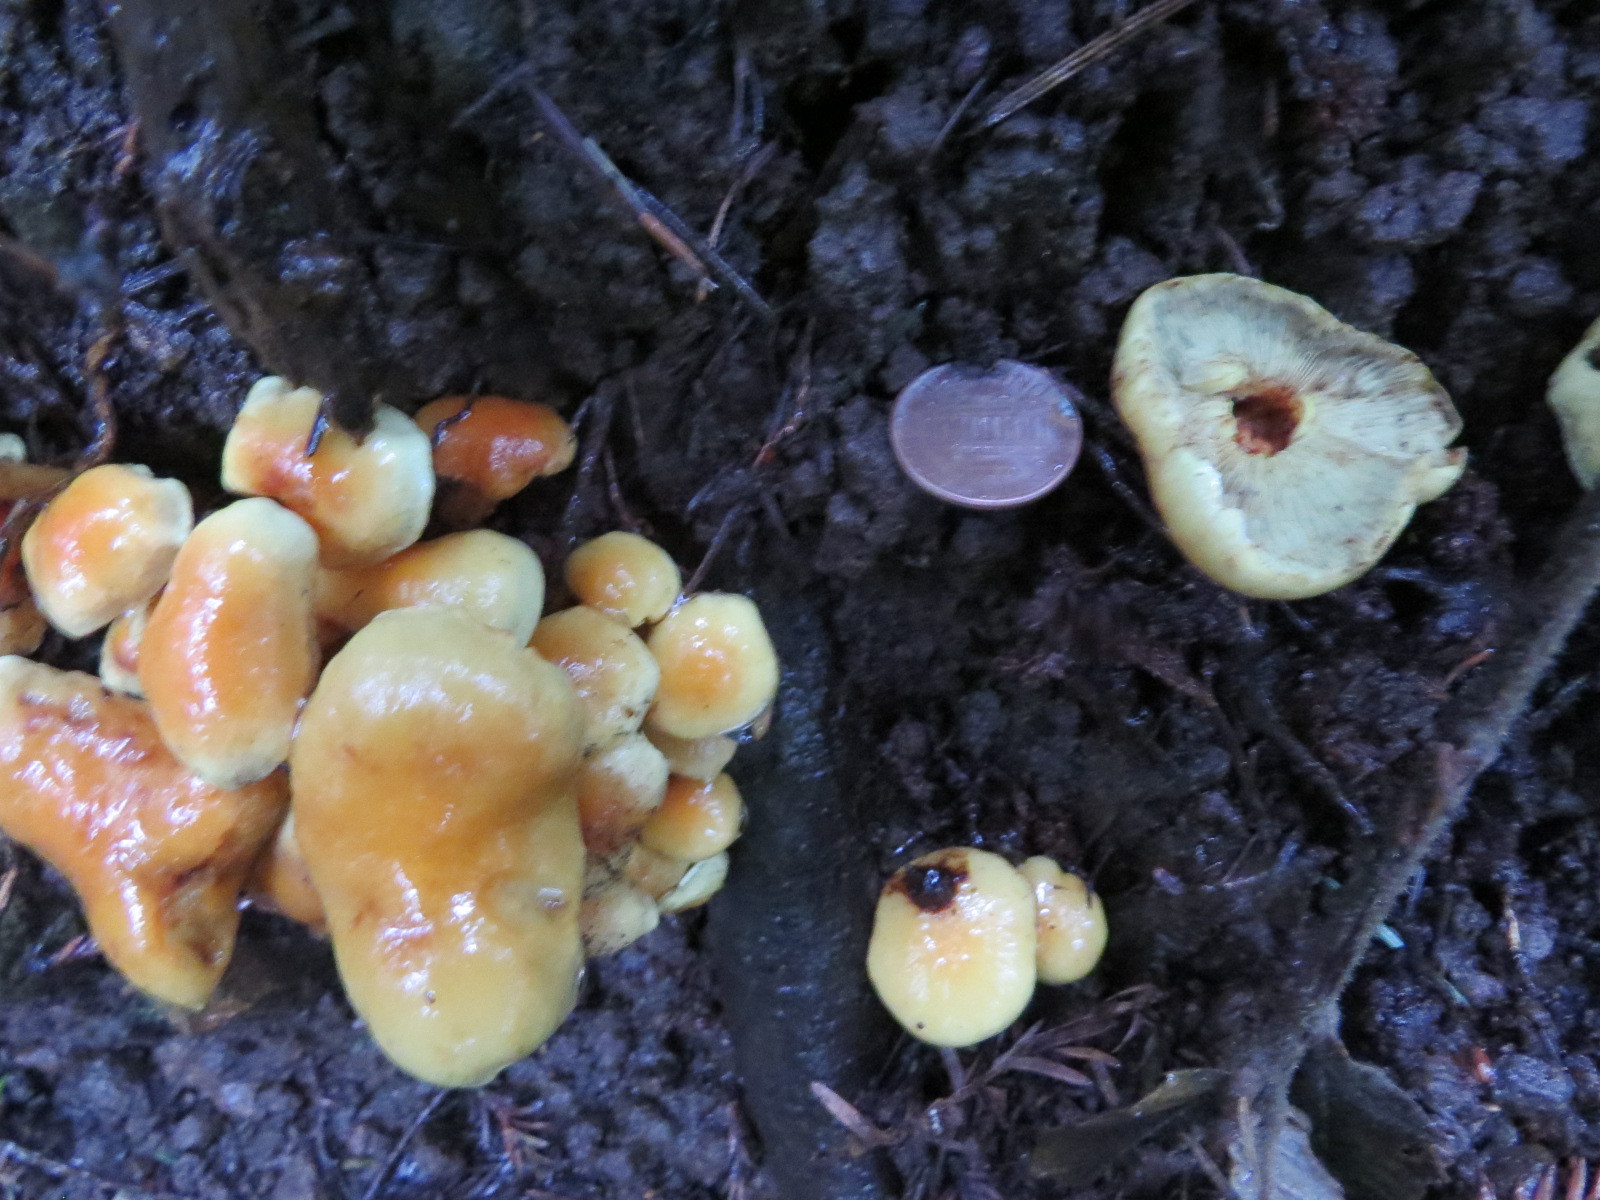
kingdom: Fungi
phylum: Basidiomycota
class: Agaricomycetes
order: Agaricales
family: Strophariaceae
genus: Hypholoma
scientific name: Hypholoma fasciculare
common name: Sulphur tuft
